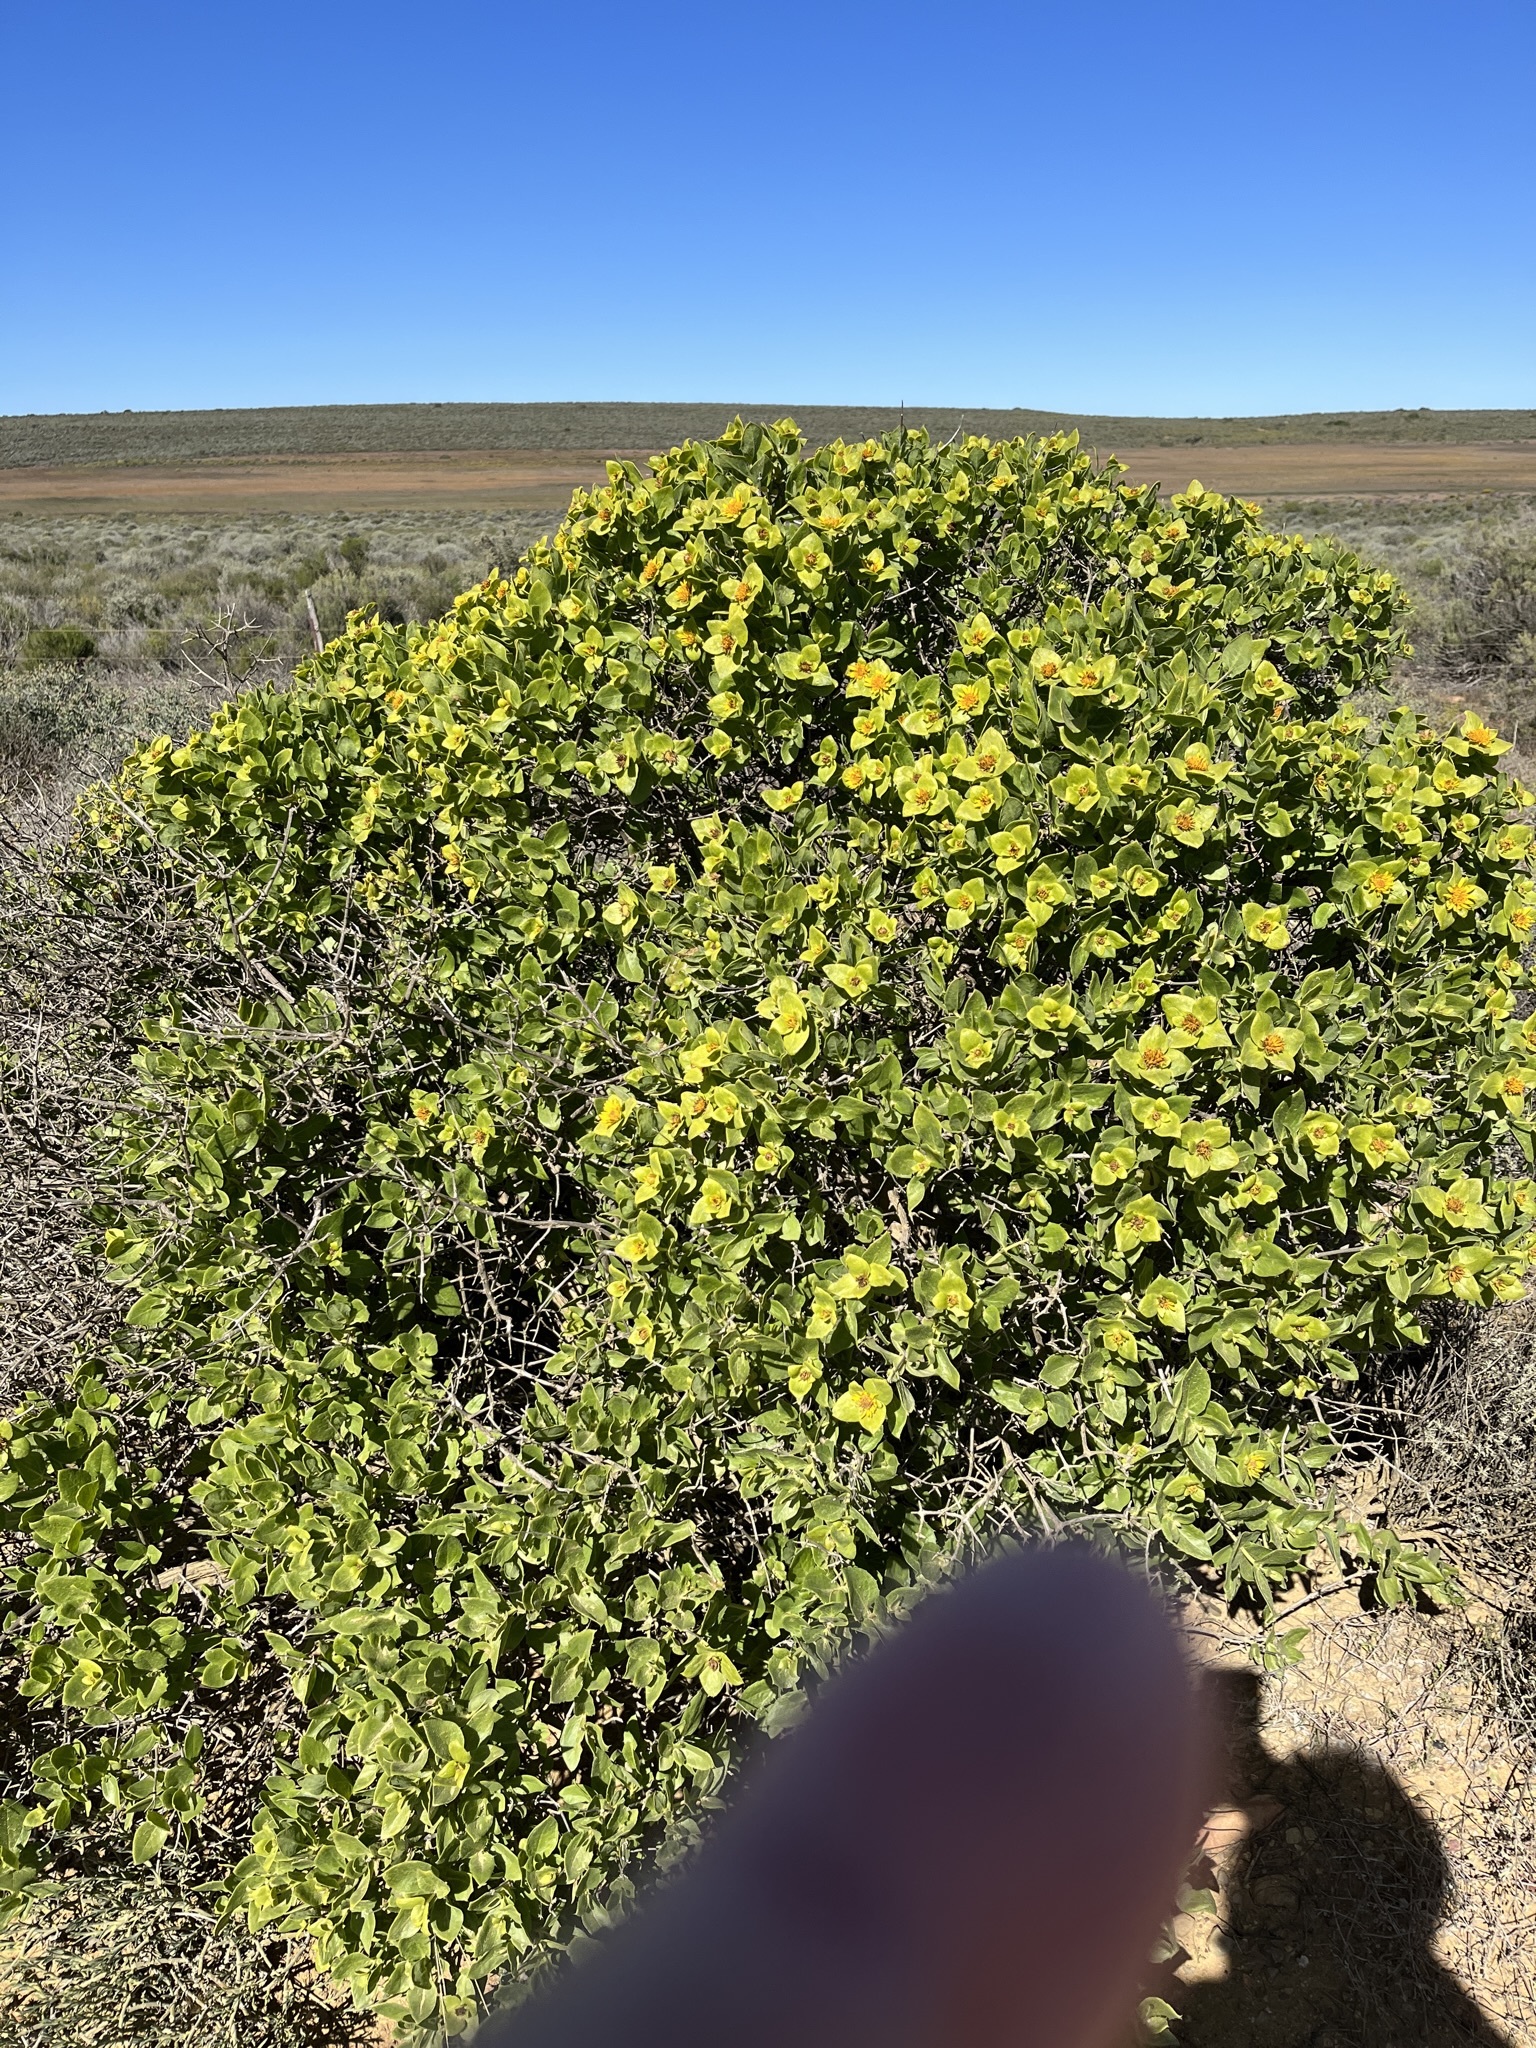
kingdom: Plantae
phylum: Tracheophyta
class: Magnoliopsida
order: Asterales
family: Asteraceae
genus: Didelta
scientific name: Didelta spinosa
